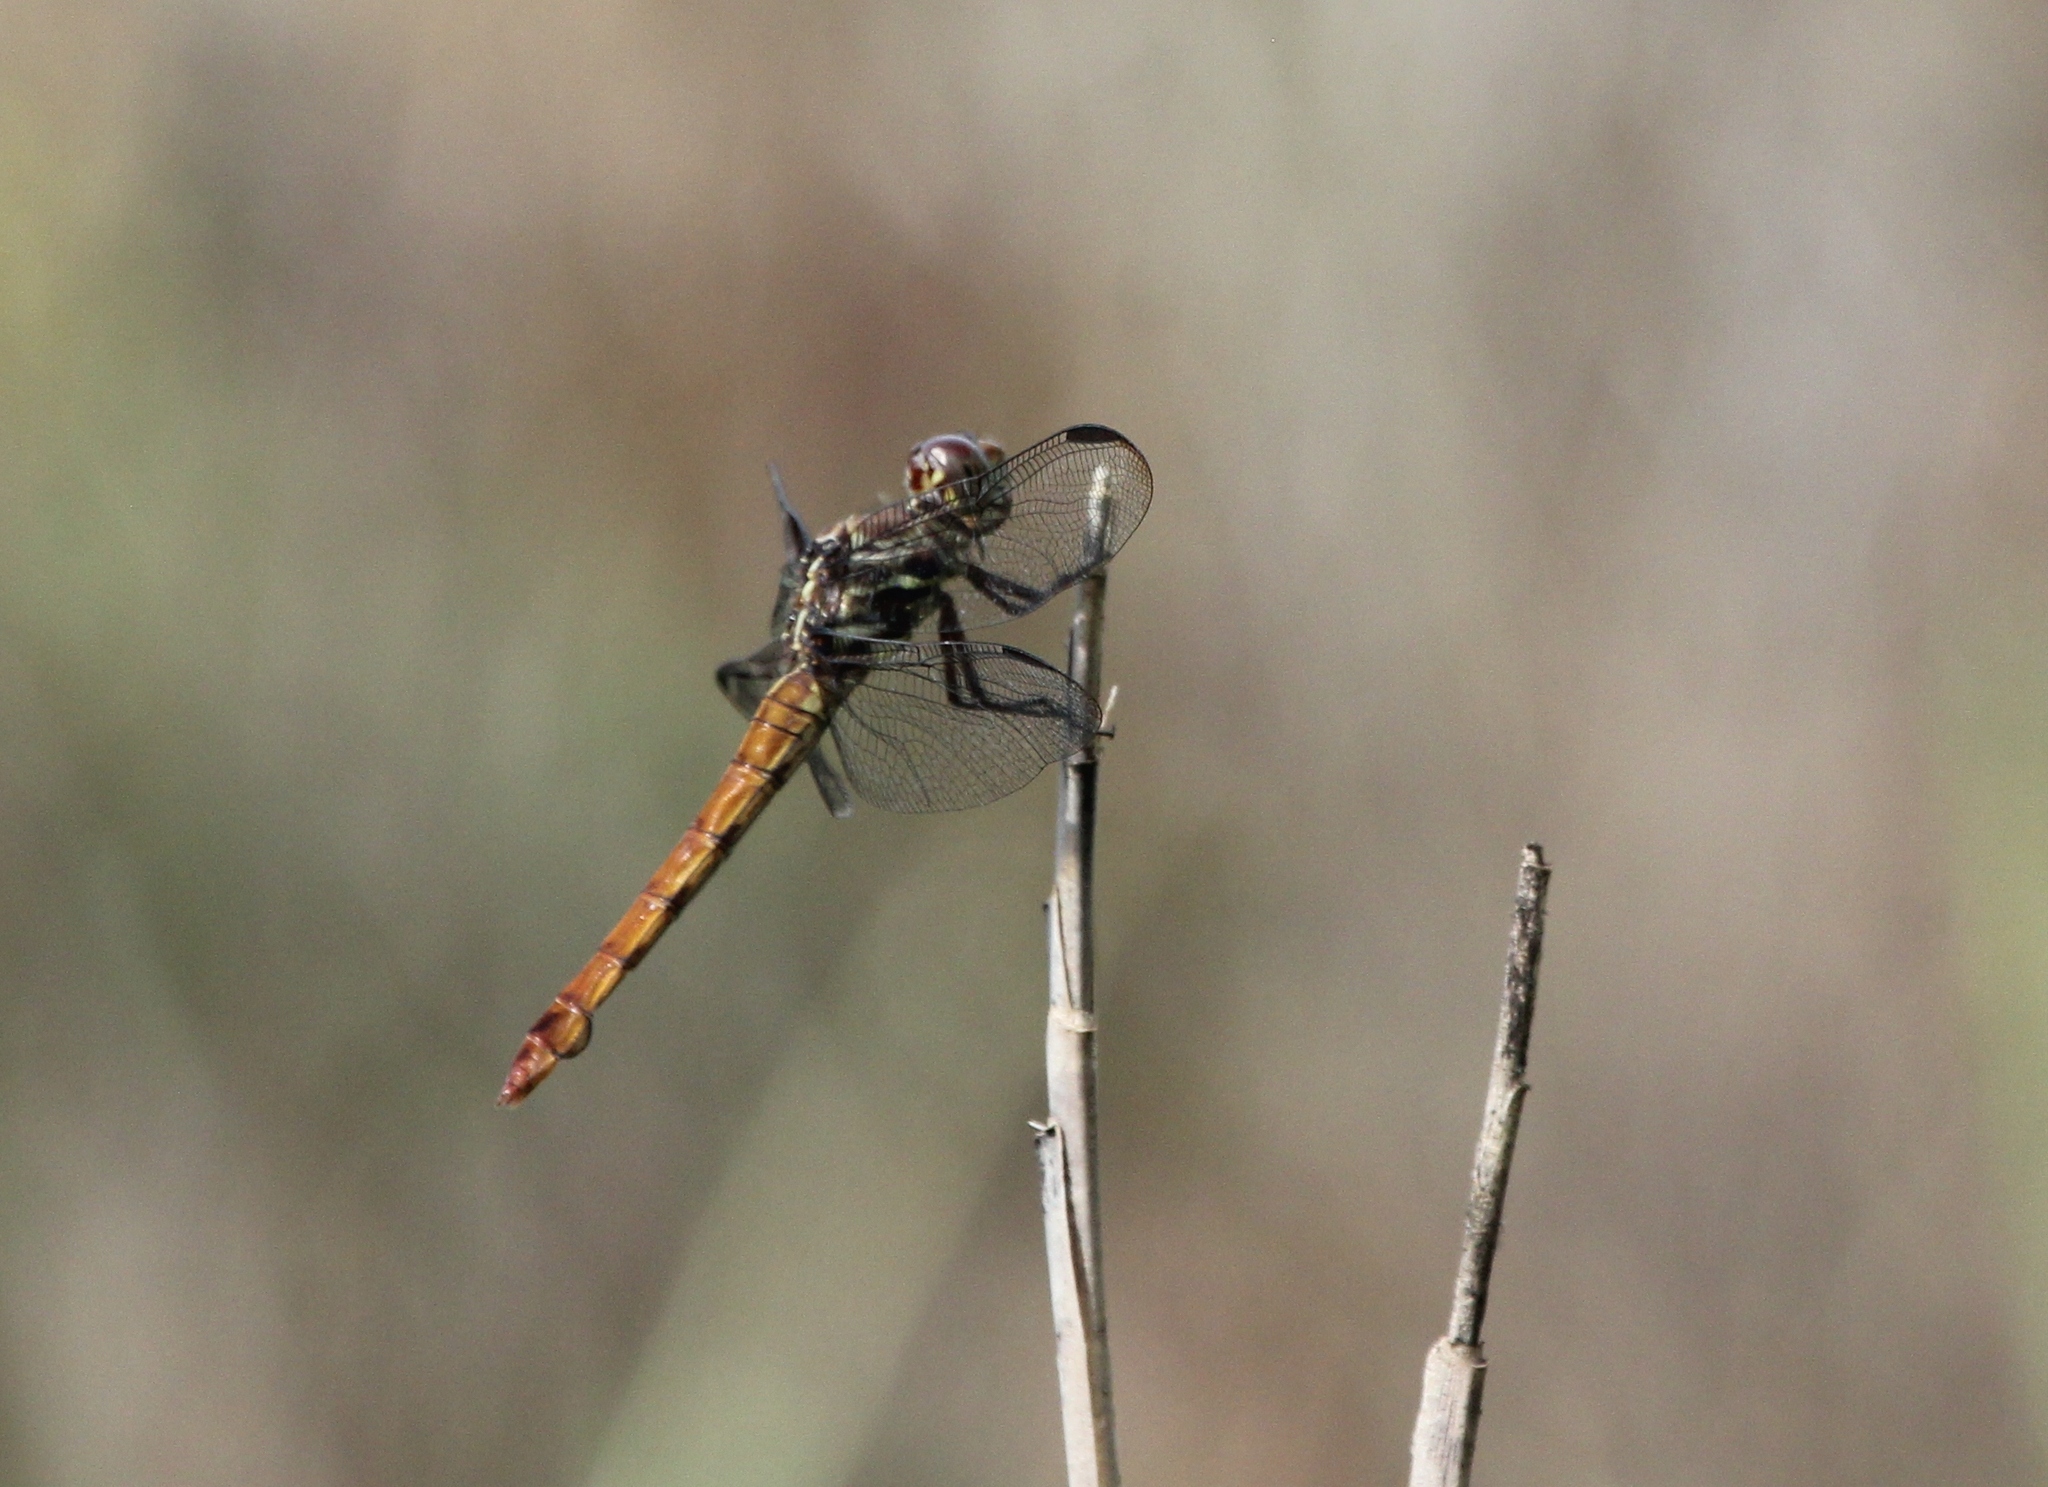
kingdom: Animalia
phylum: Arthropoda
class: Insecta
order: Odonata
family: Libellulidae
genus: Orthemis
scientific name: Orthemis ferruginea
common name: Roseate skimmer
